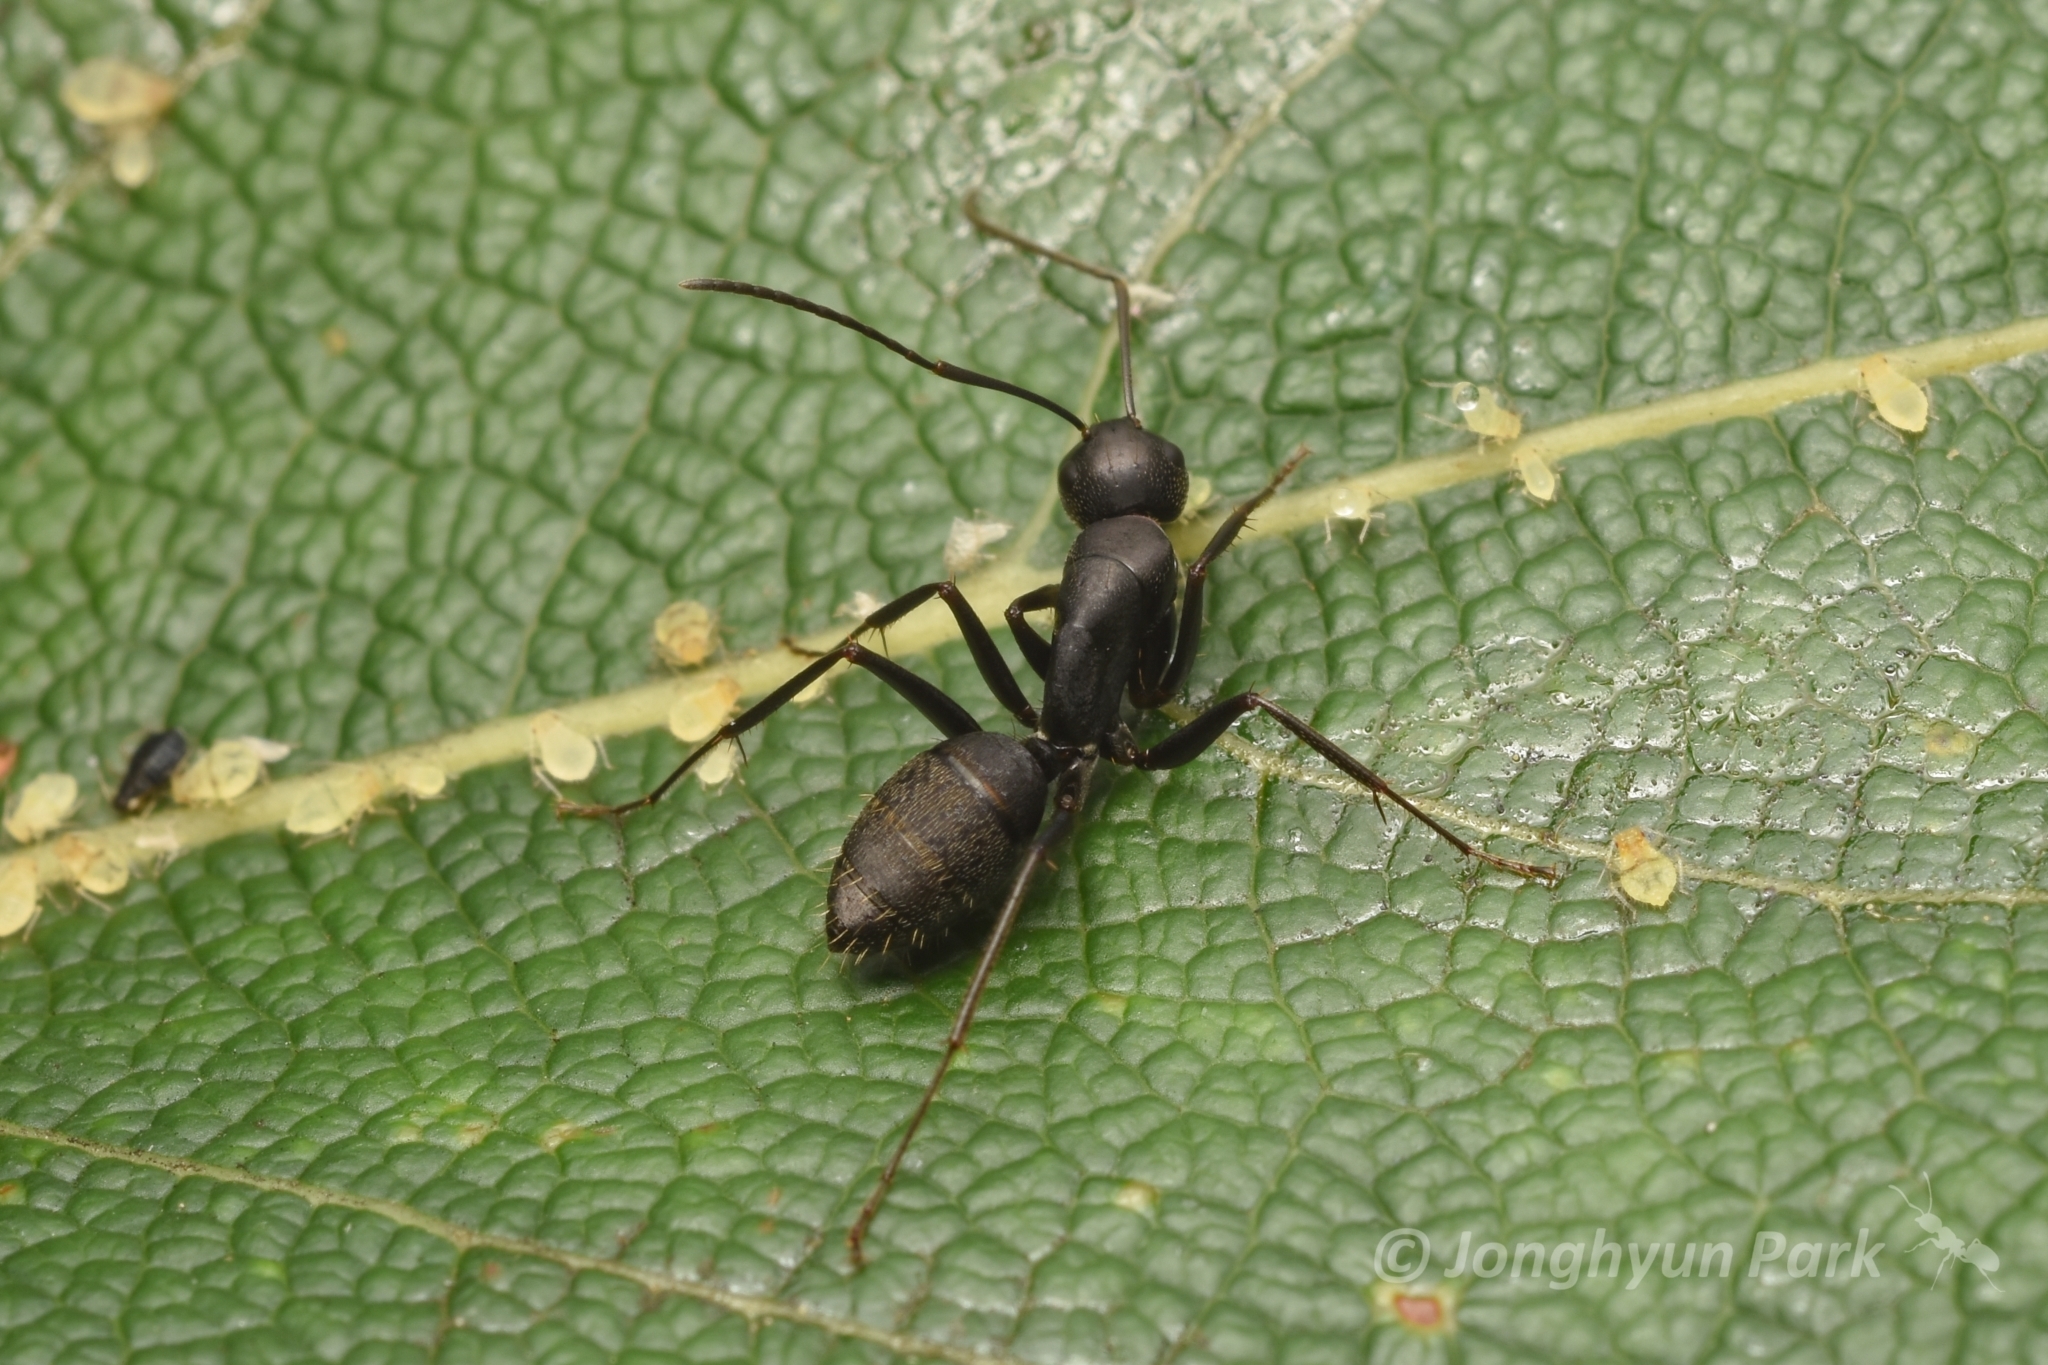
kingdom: Animalia
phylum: Arthropoda
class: Insecta
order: Hymenoptera
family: Formicidae
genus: Camponotus
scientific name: Camponotus japonicus
